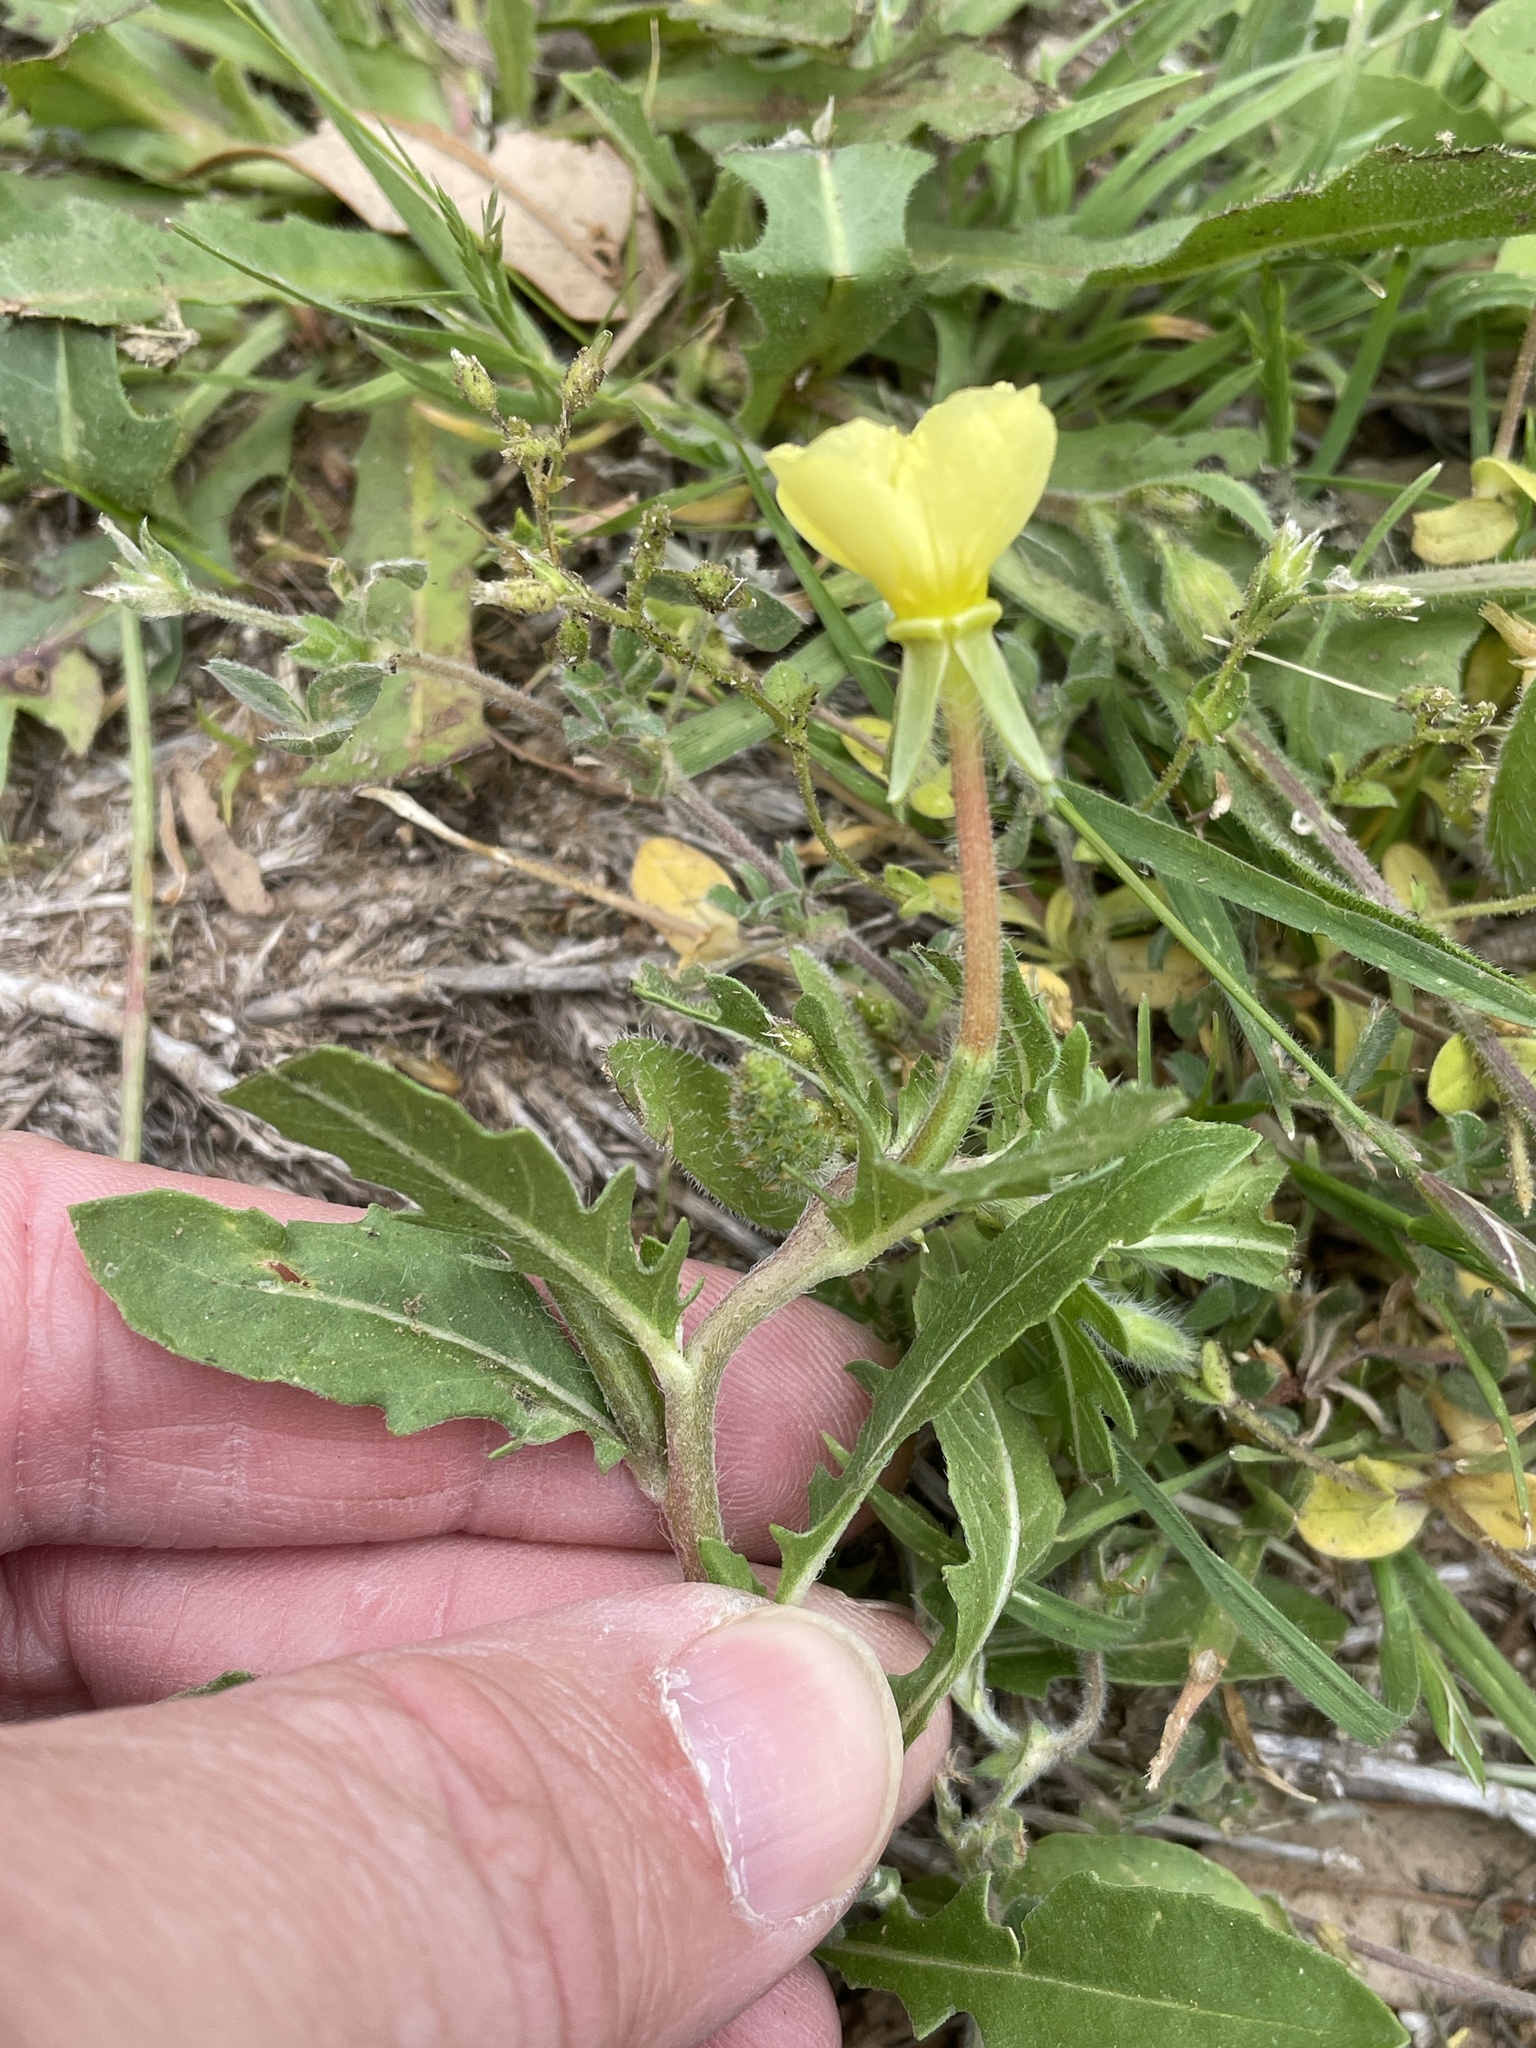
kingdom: Plantae
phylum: Tracheophyta
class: Magnoliopsida
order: Myrtales
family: Onagraceae
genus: Oenothera
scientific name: Oenothera laciniata
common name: Cut-leaved evening-primrose
